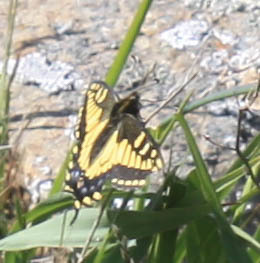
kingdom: Animalia
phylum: Arthropoda
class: Insecta
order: Lepidoptera
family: Papilionidae
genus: Papilio
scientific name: Papilio zelicaon
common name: Anise swallowtail
